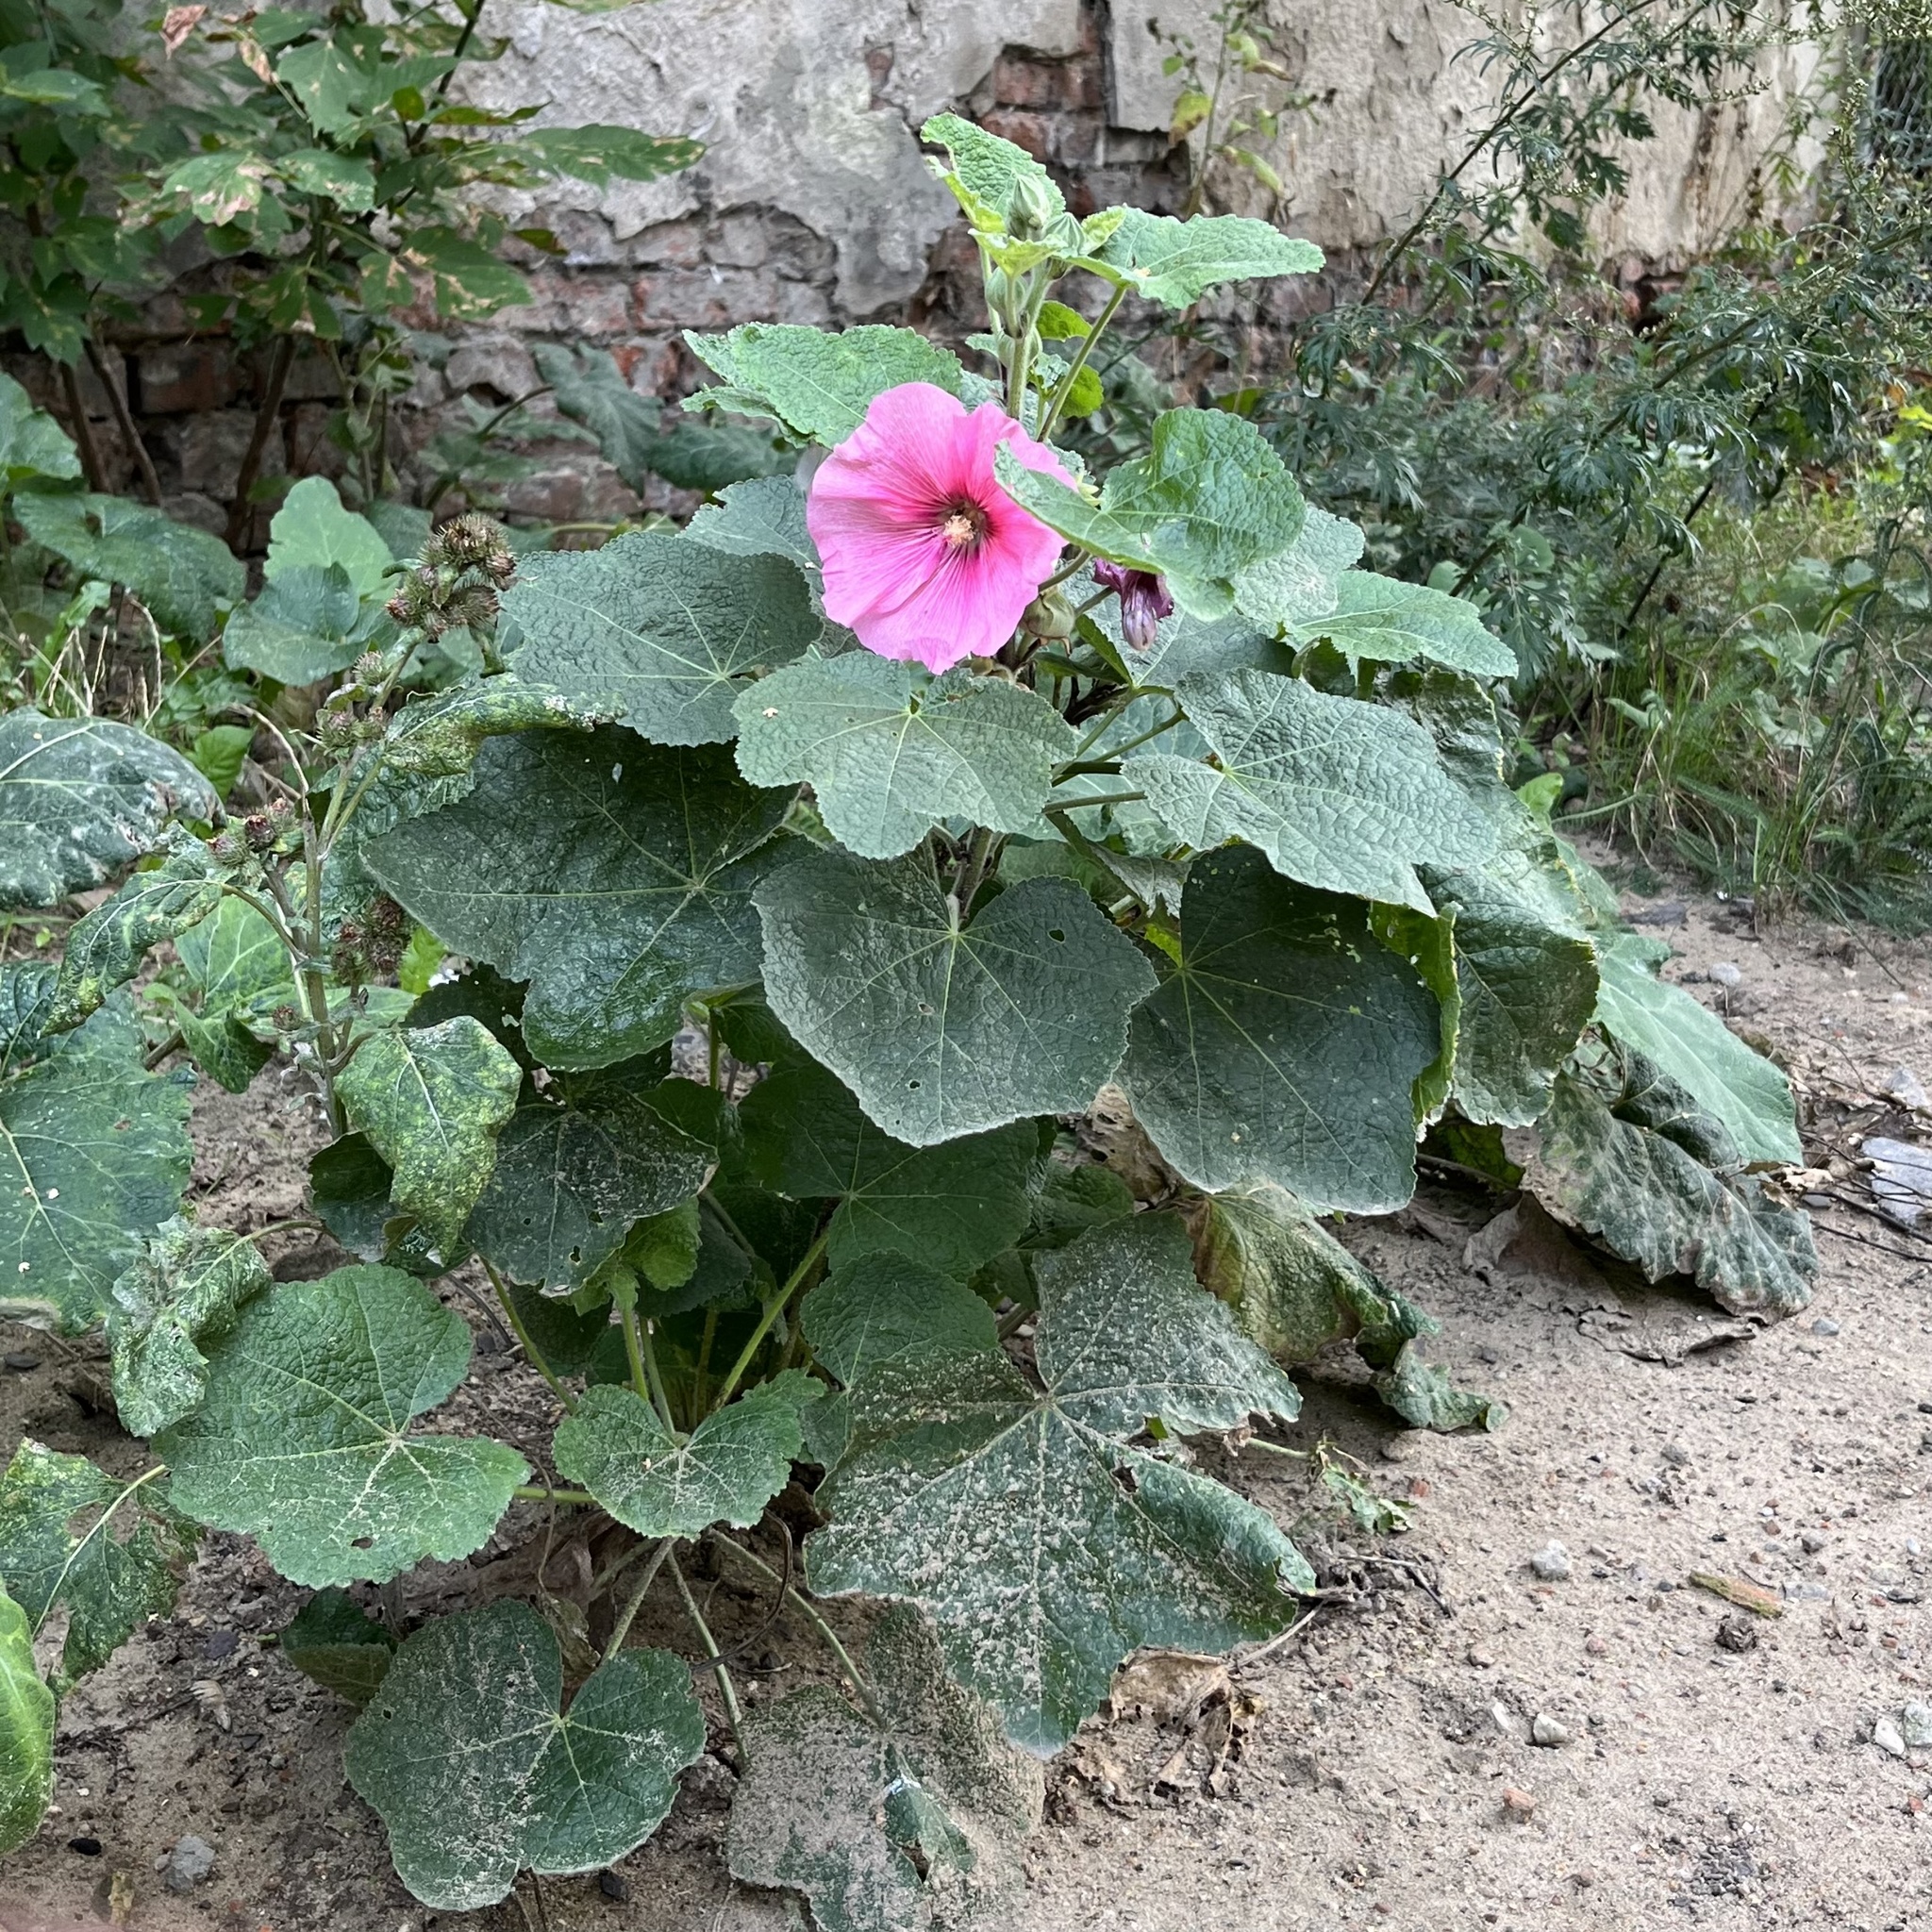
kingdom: Plantae
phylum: Tracheophyta
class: Magnoliopsida
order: Malvales
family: Malvaceae
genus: Alcea
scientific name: Alcea rosea
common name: Hollyhock
